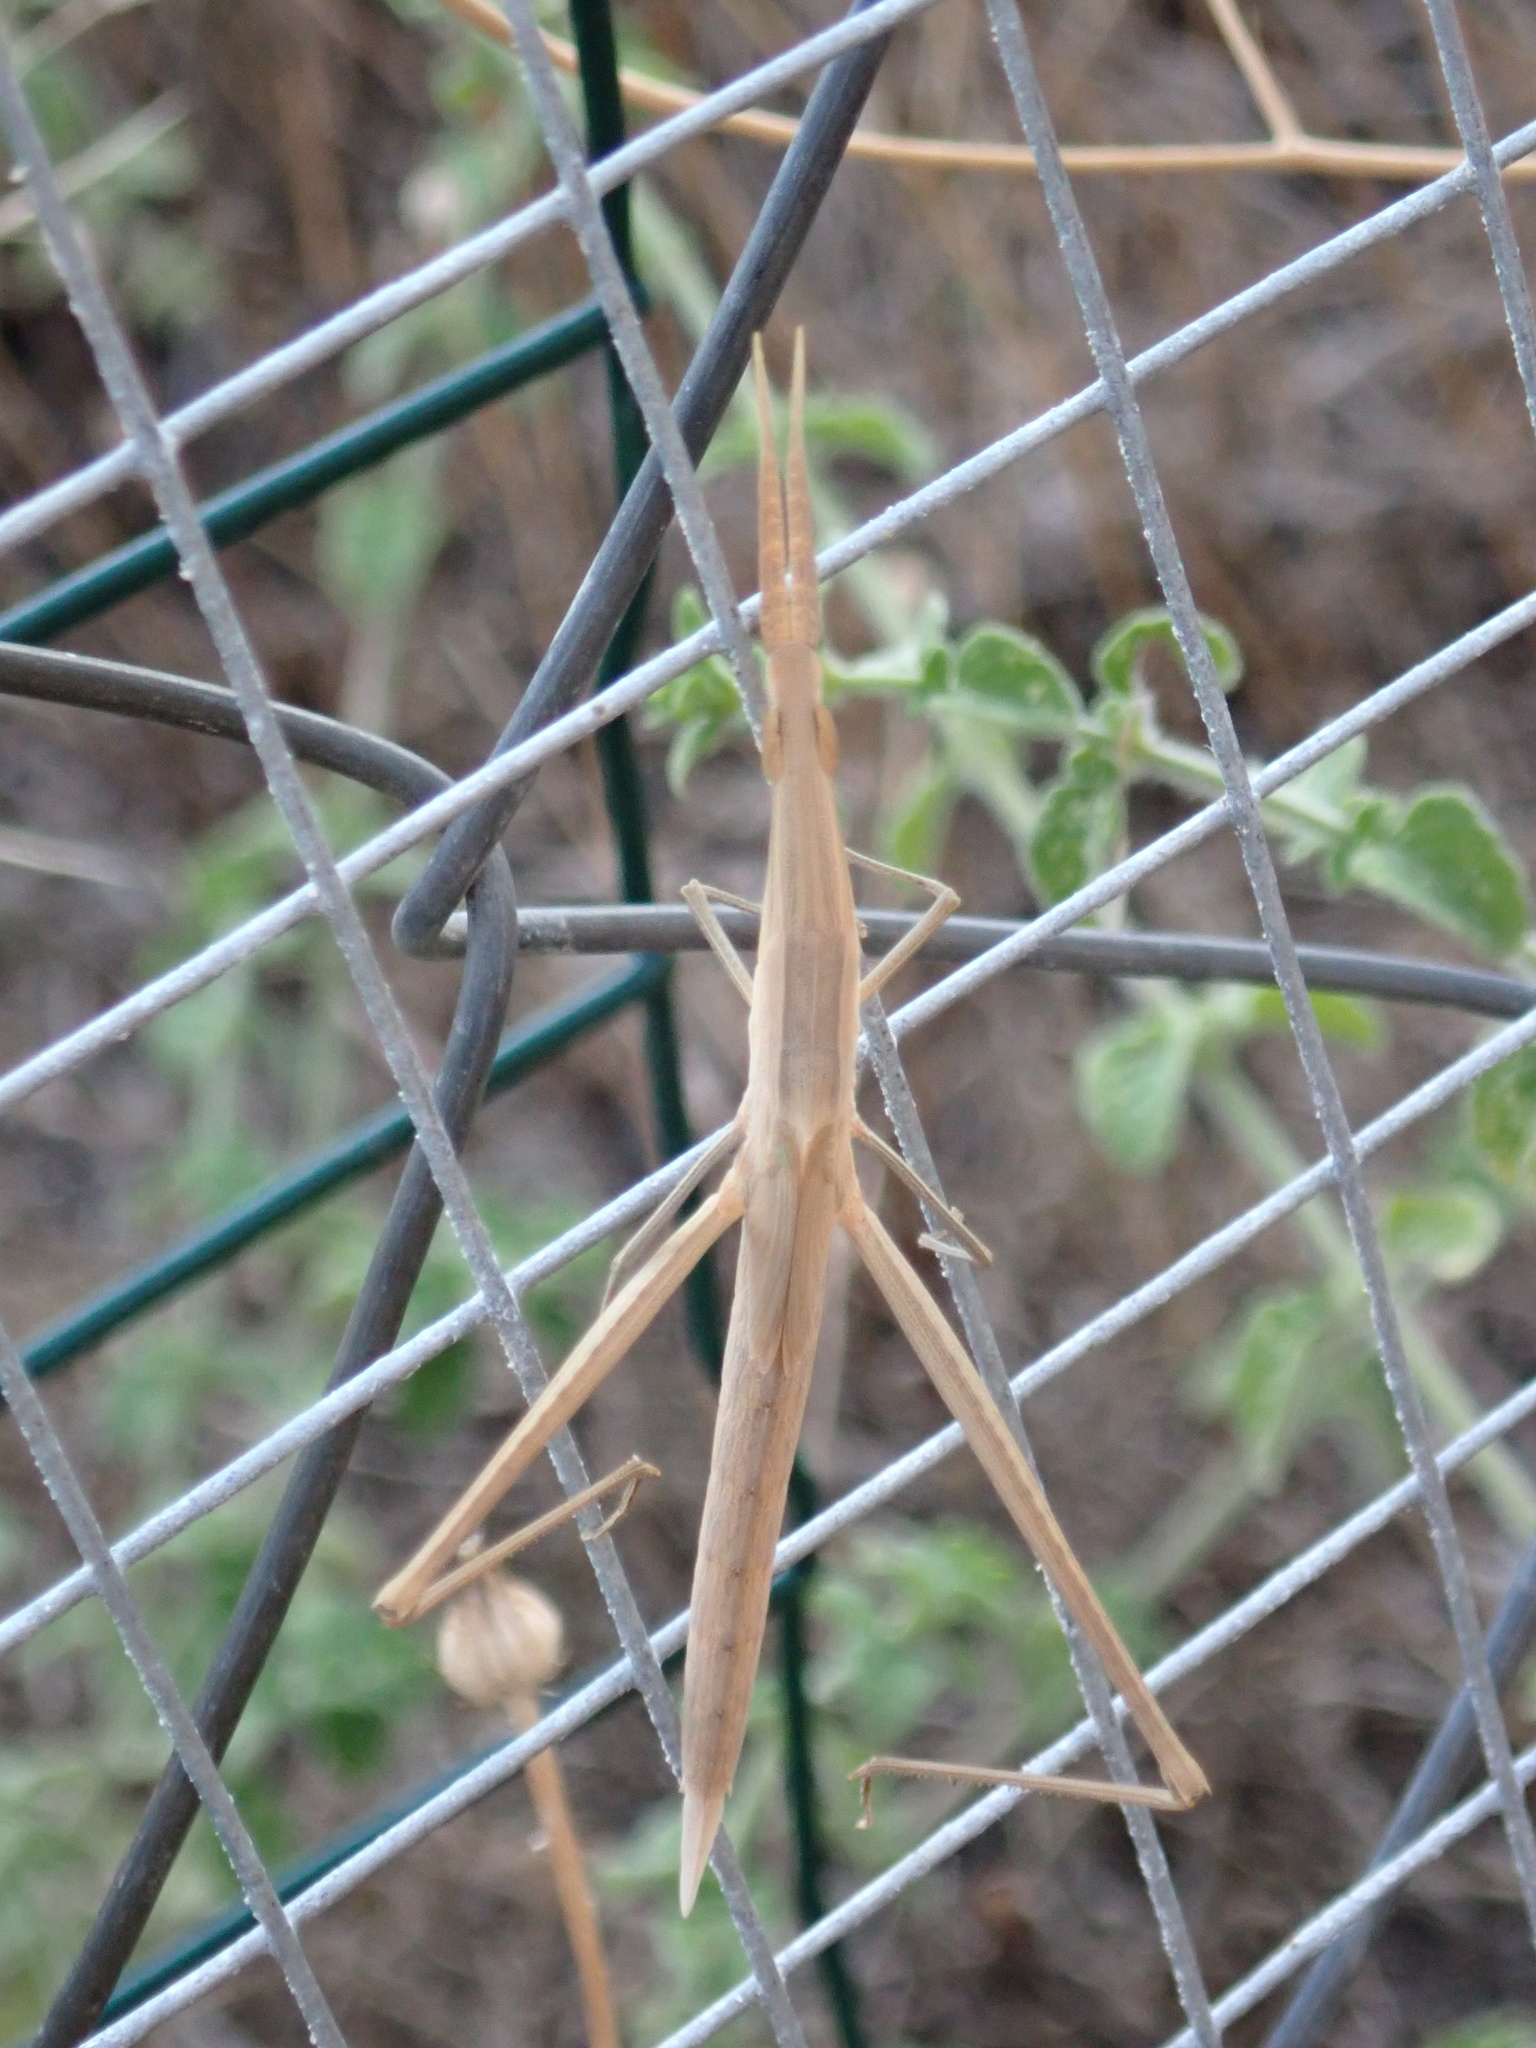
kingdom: Animalia
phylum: Arthropoda
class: Insecta
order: Orthoptera
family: Acrididae
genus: Acrida
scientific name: Acrida ungarica
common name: Common cone-headed grasshopper
